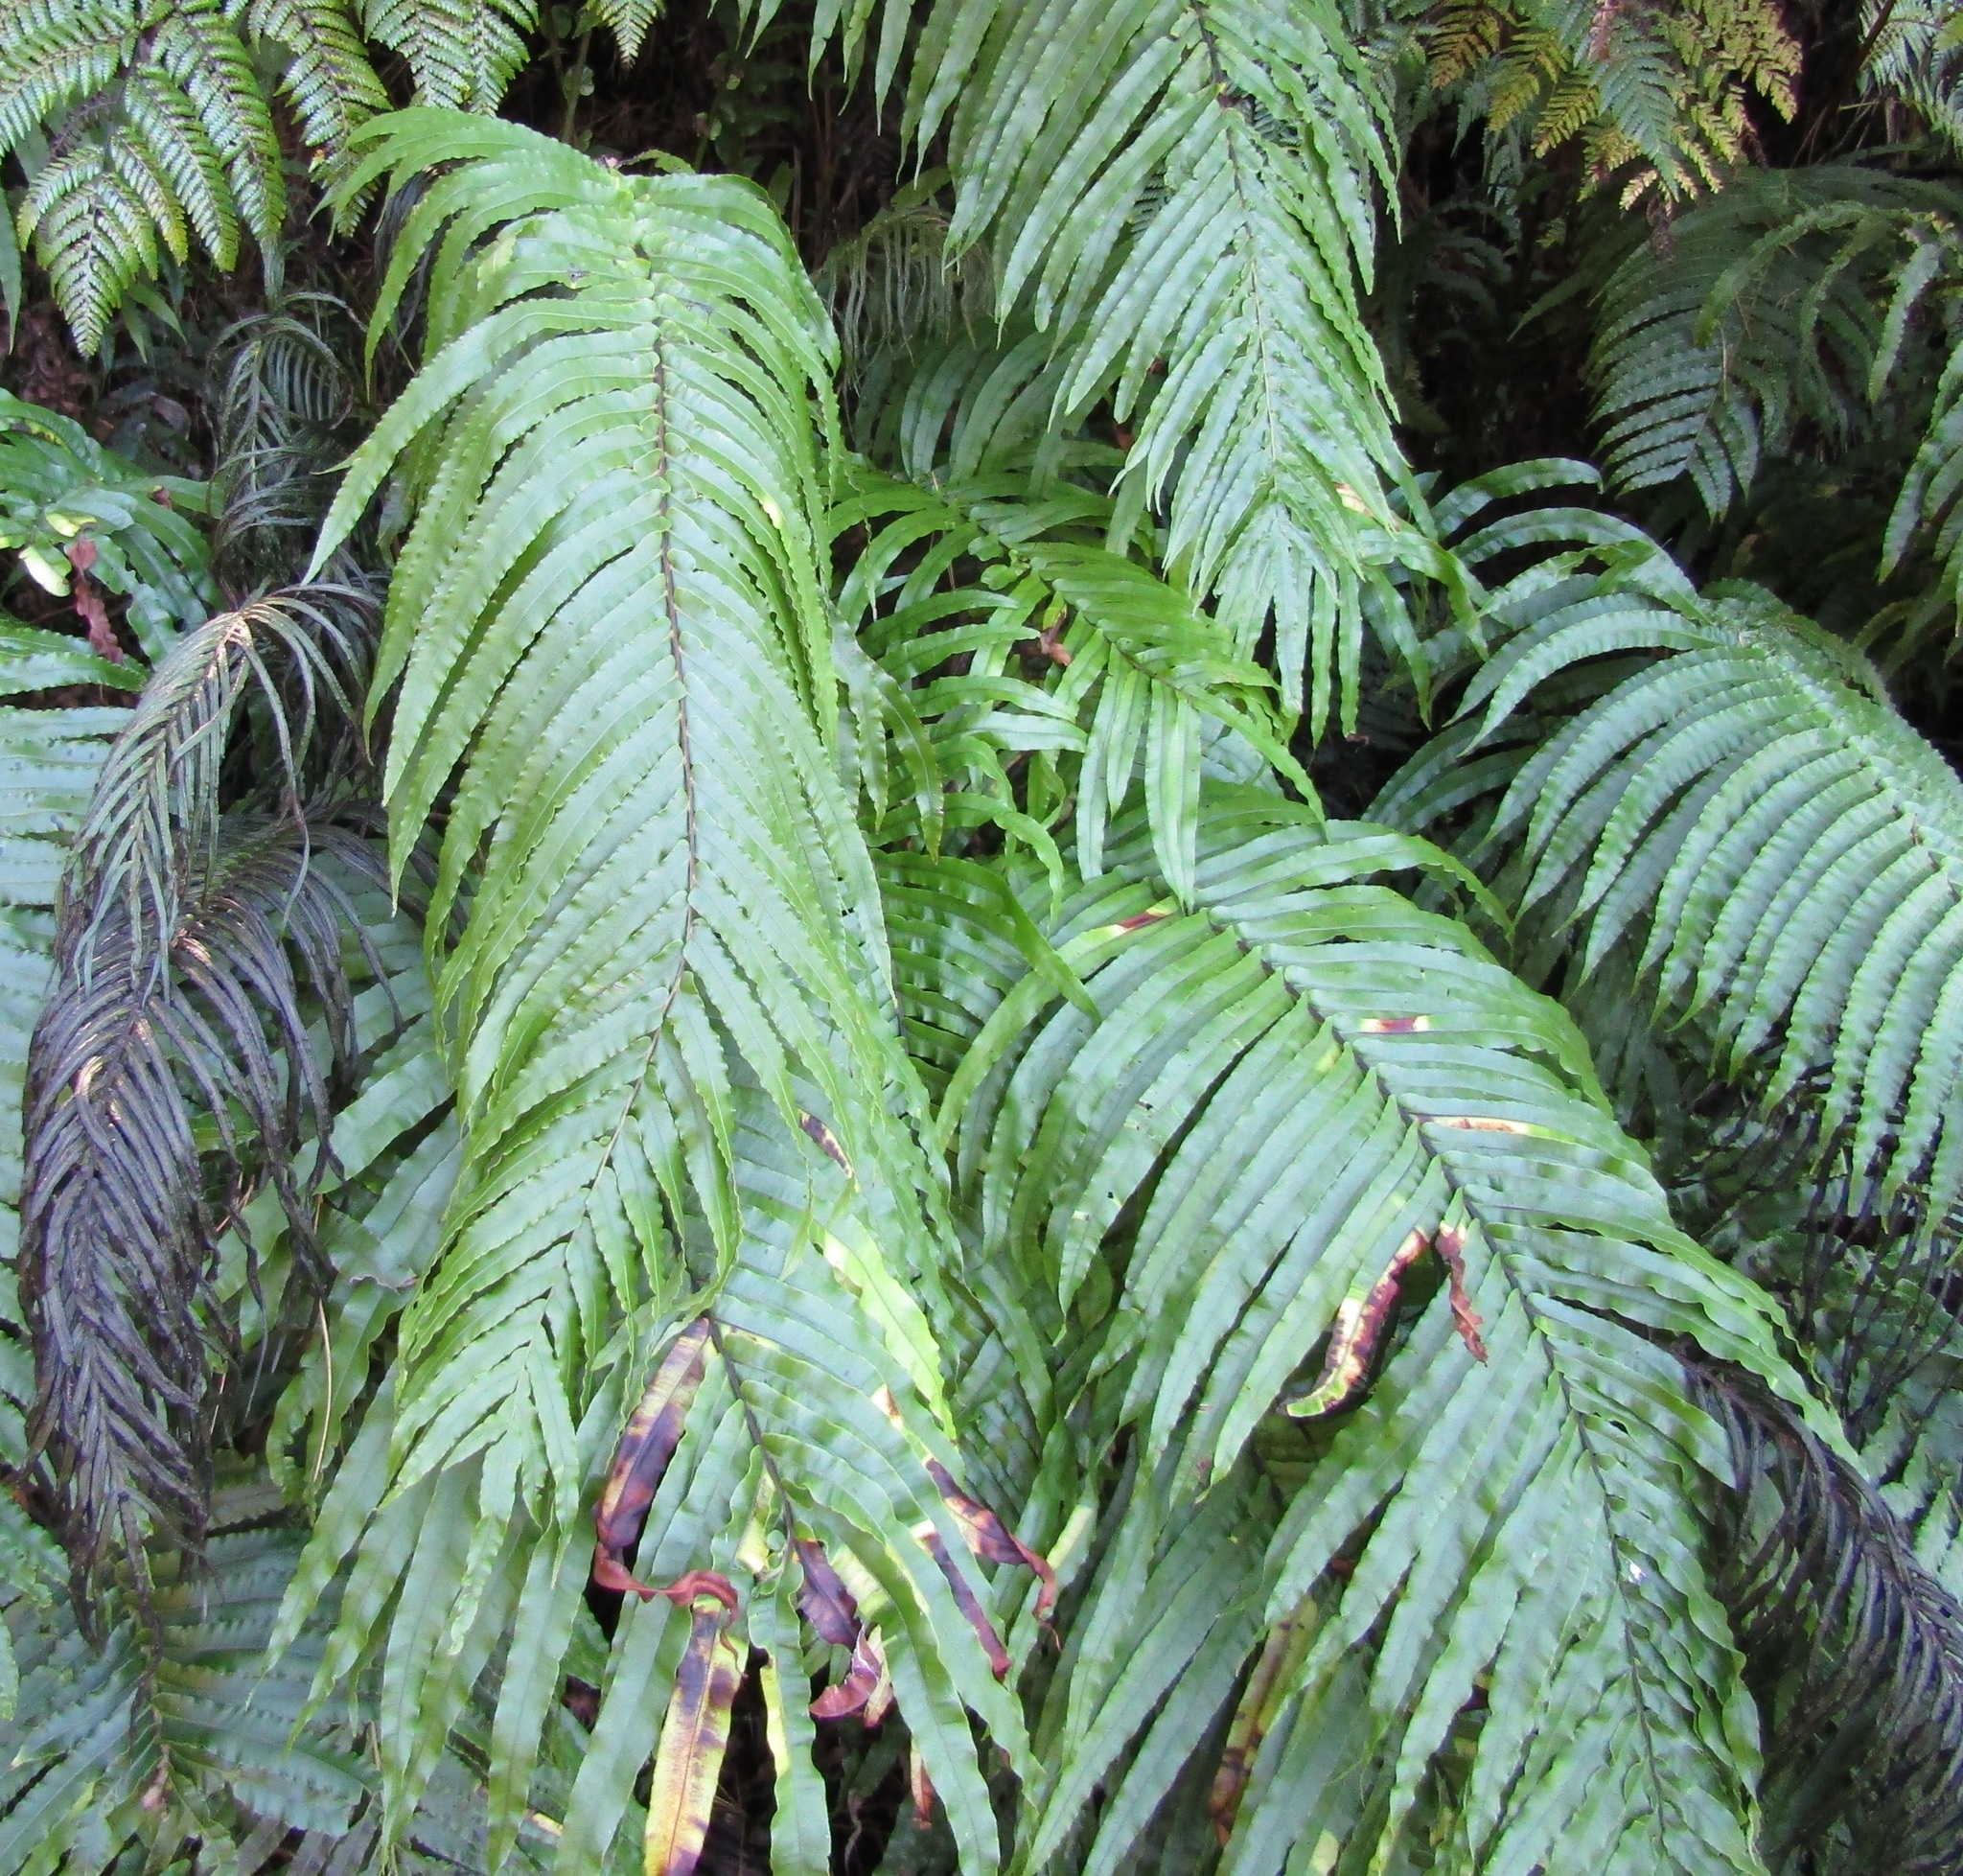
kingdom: Plantae
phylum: Tracheophyta
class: Polypodiopsida
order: Polypodiales
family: Blechnaceae
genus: Parablechnum
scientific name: Parablechnum novae-zelandiae
